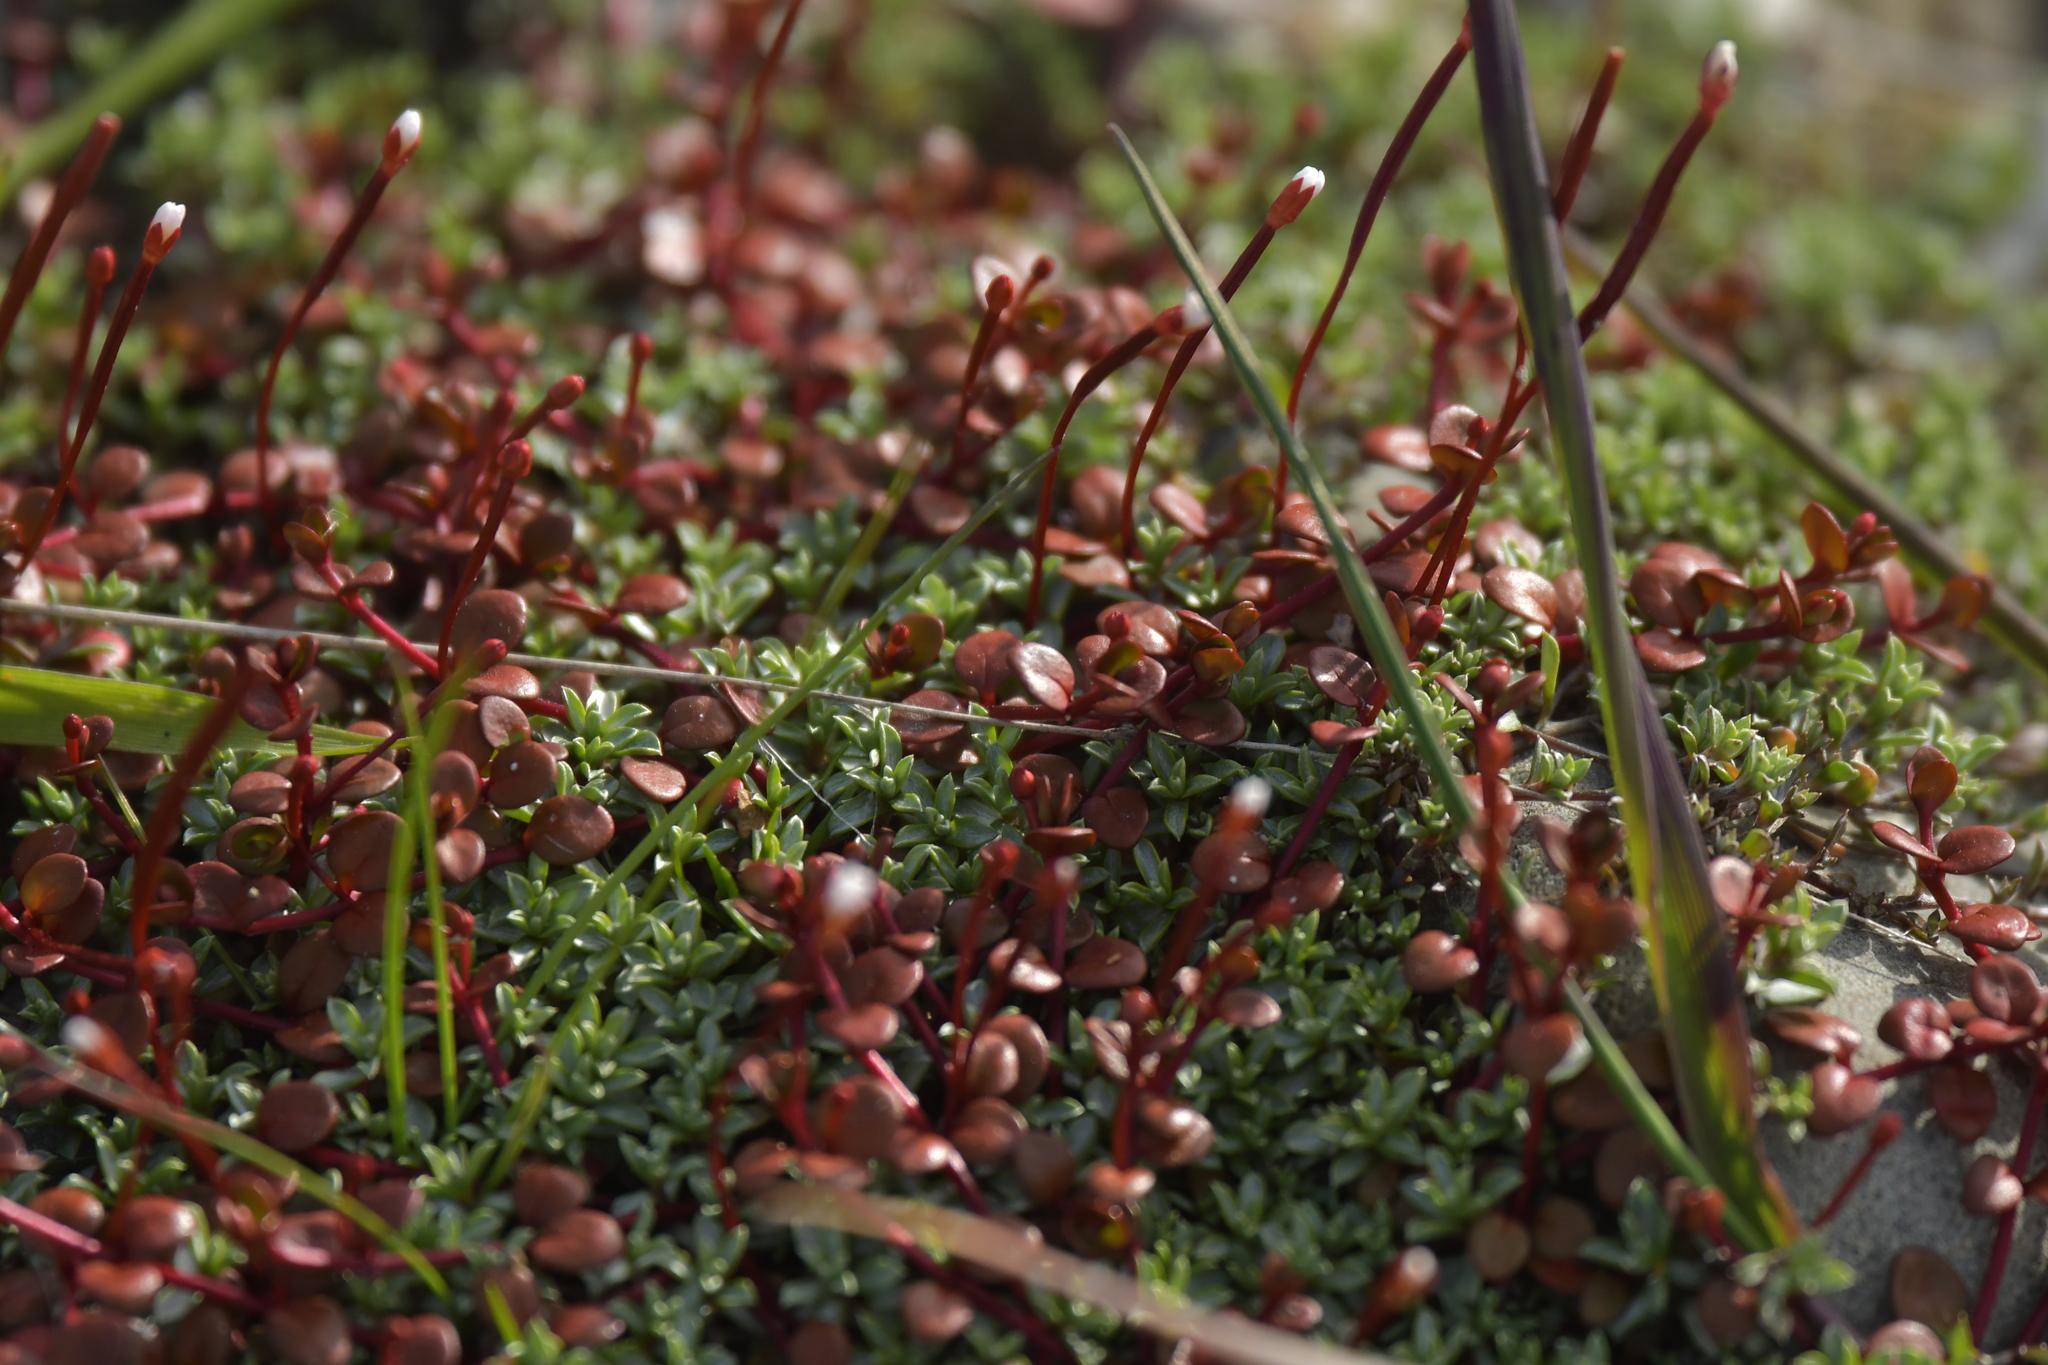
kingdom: Plantae
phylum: Tracheophyta
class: Magnoliopsida
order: Myrtales
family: Onagraceae
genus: Epilobium
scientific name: Epilobium brunnescens
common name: New zealand willowherb
